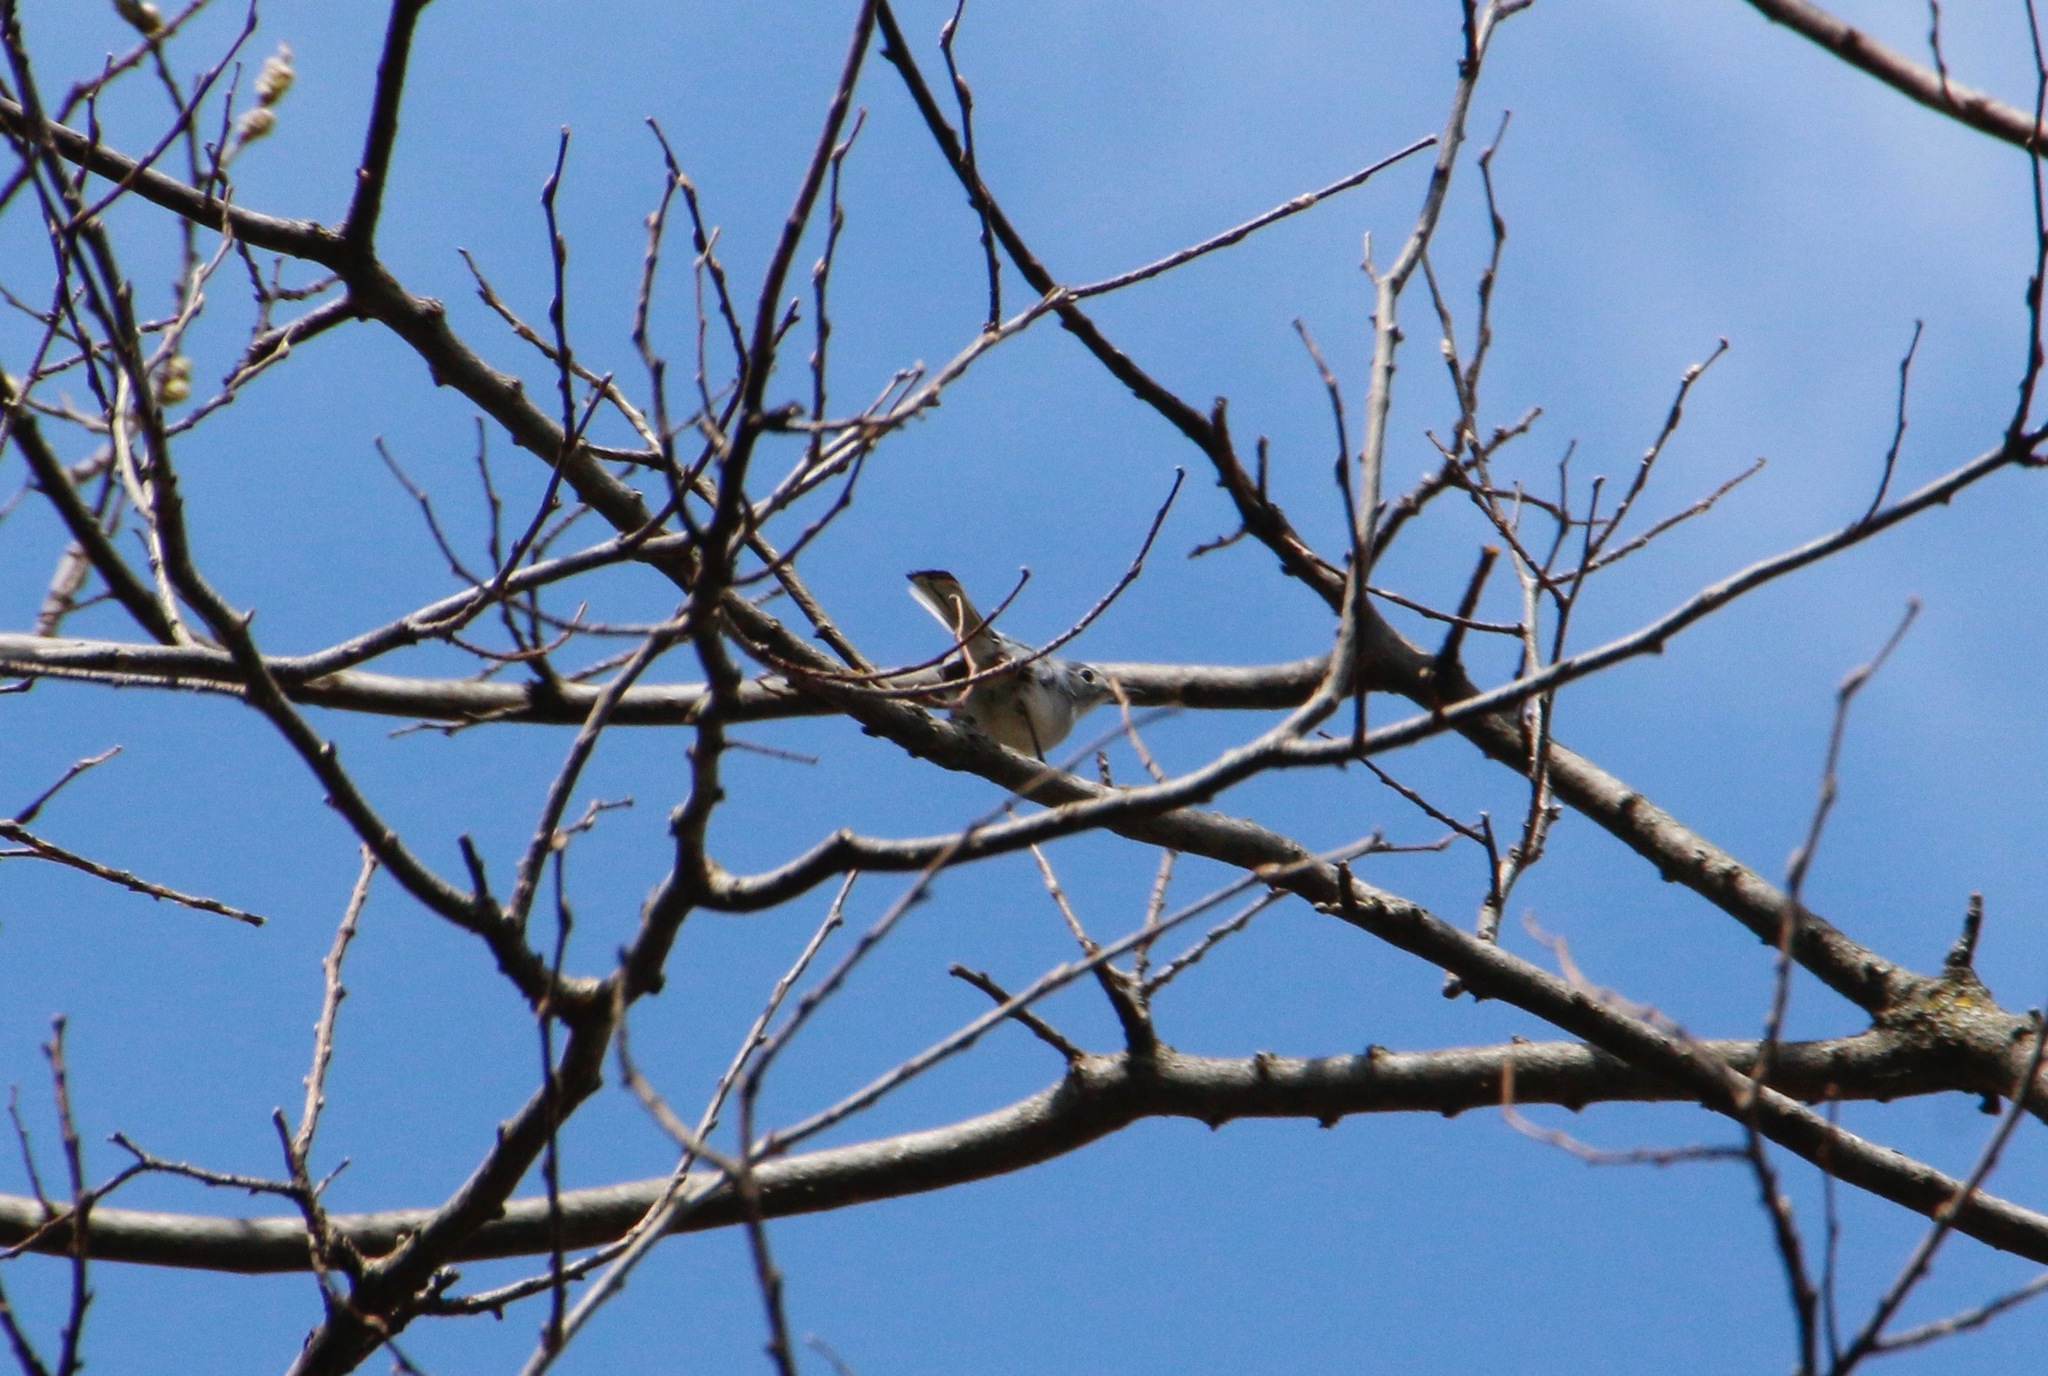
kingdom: Animalia
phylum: Chordata
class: Aves
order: Passeriformes
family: Polioptilidae
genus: Polioptila
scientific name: Polioptila caerulea
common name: Blue-gray gnatcatcher
